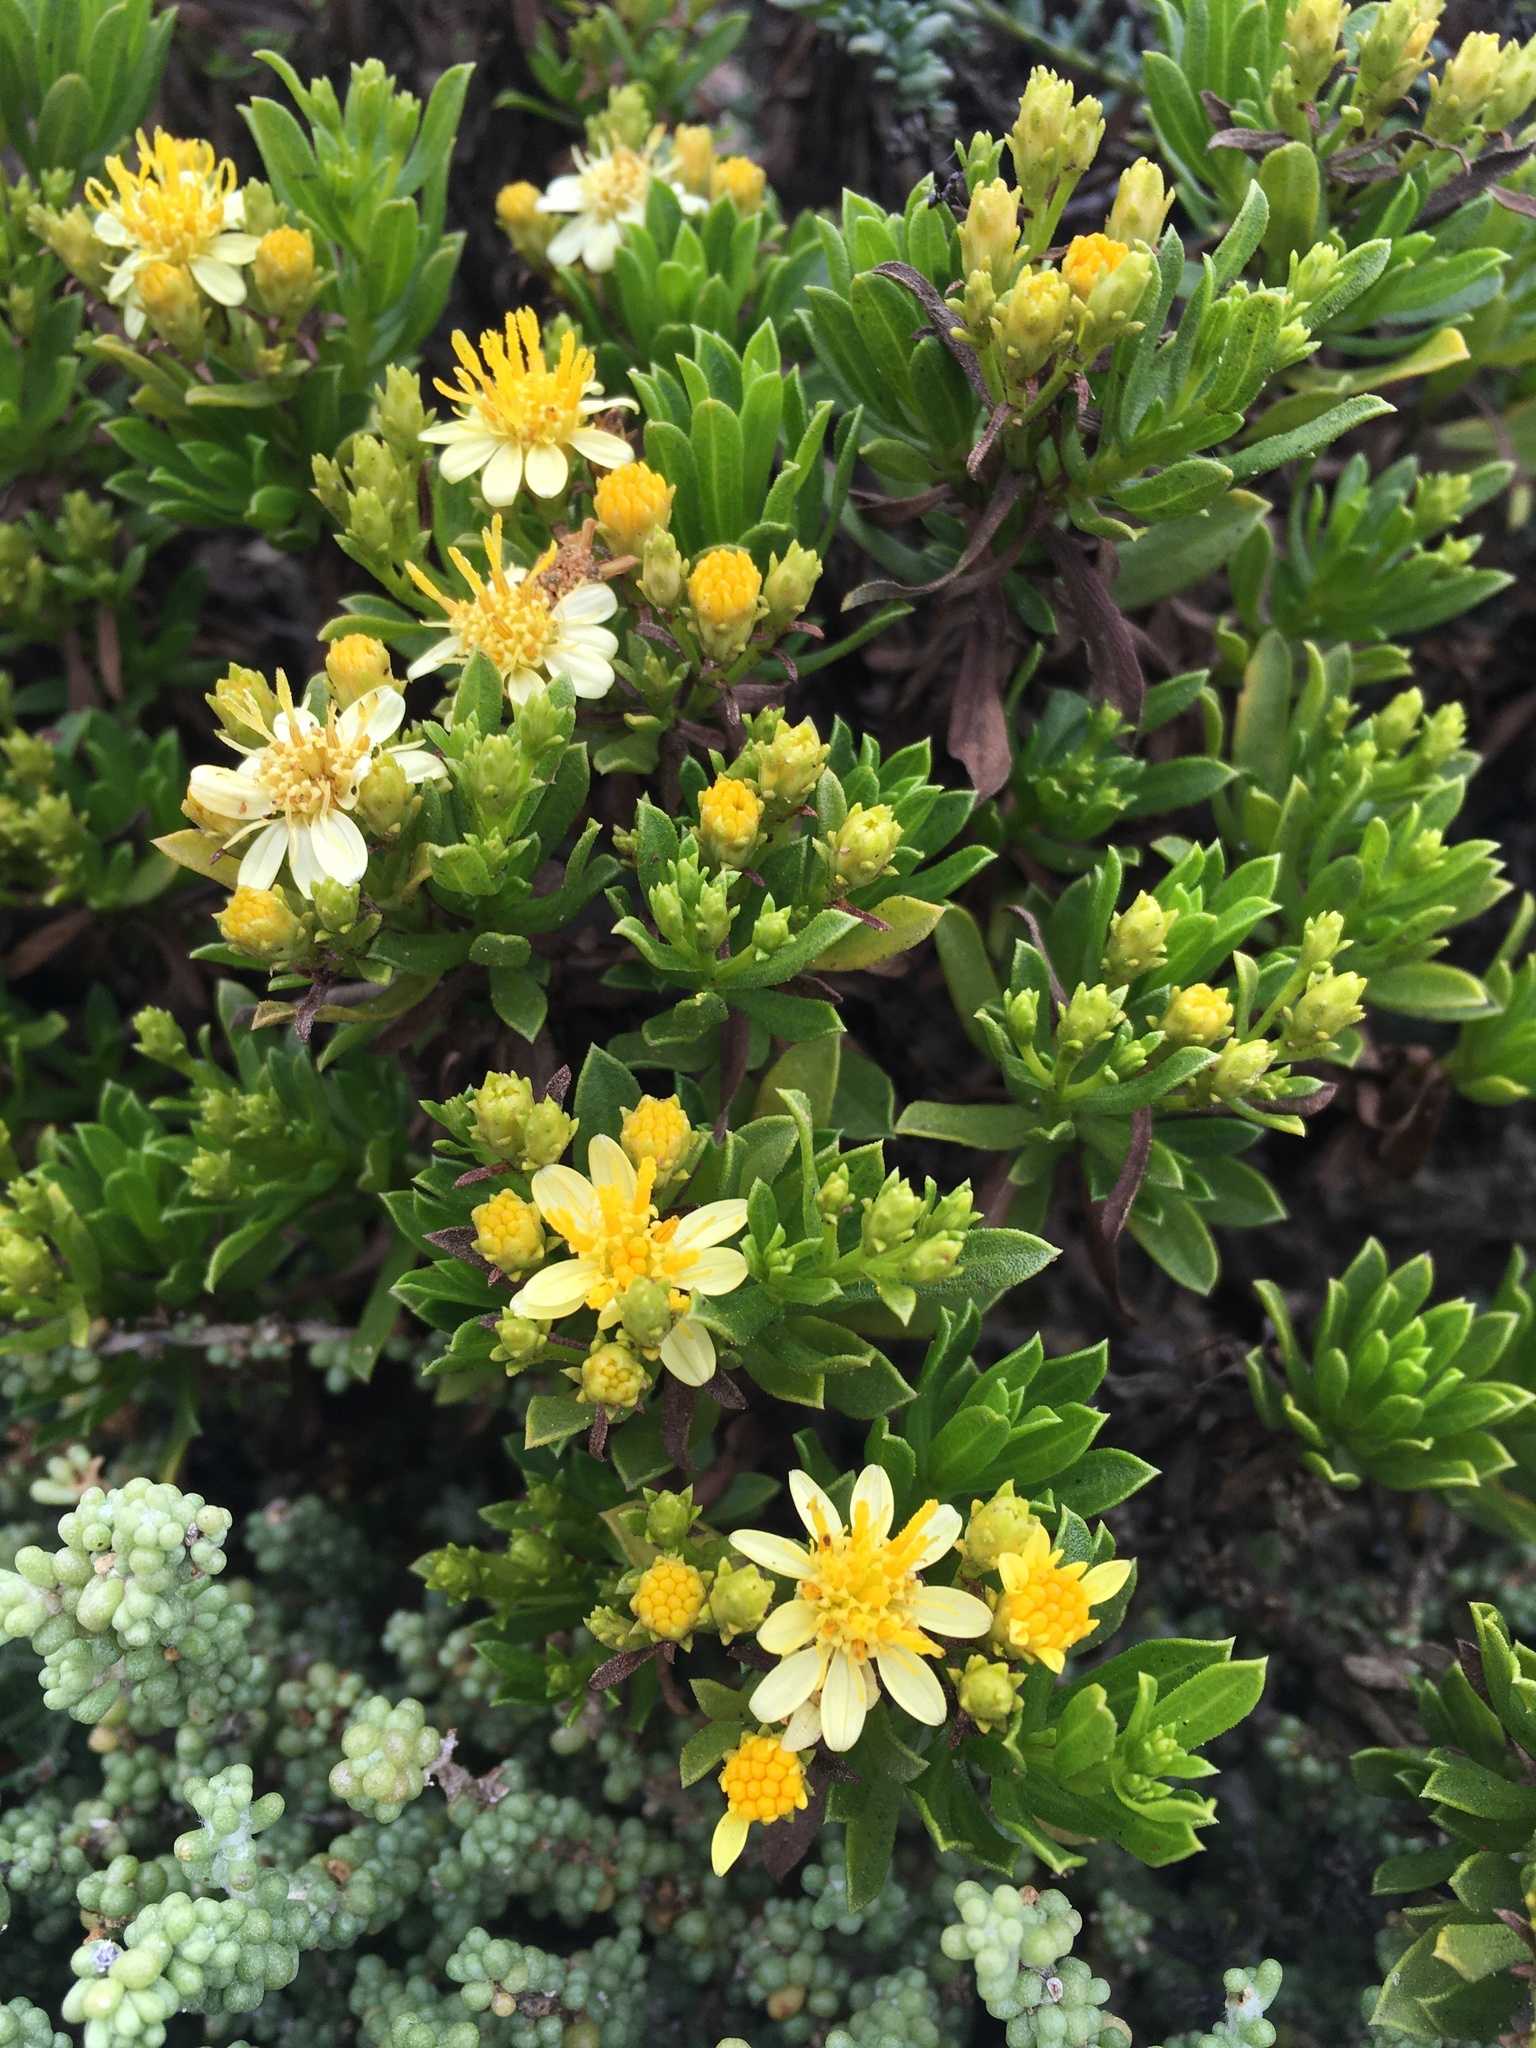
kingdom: Plantae
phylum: Tracheophyta
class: Magnoliopsida
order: Asterales
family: Asteraceae
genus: Gutierrezia
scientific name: Gutierrezia espinosae
